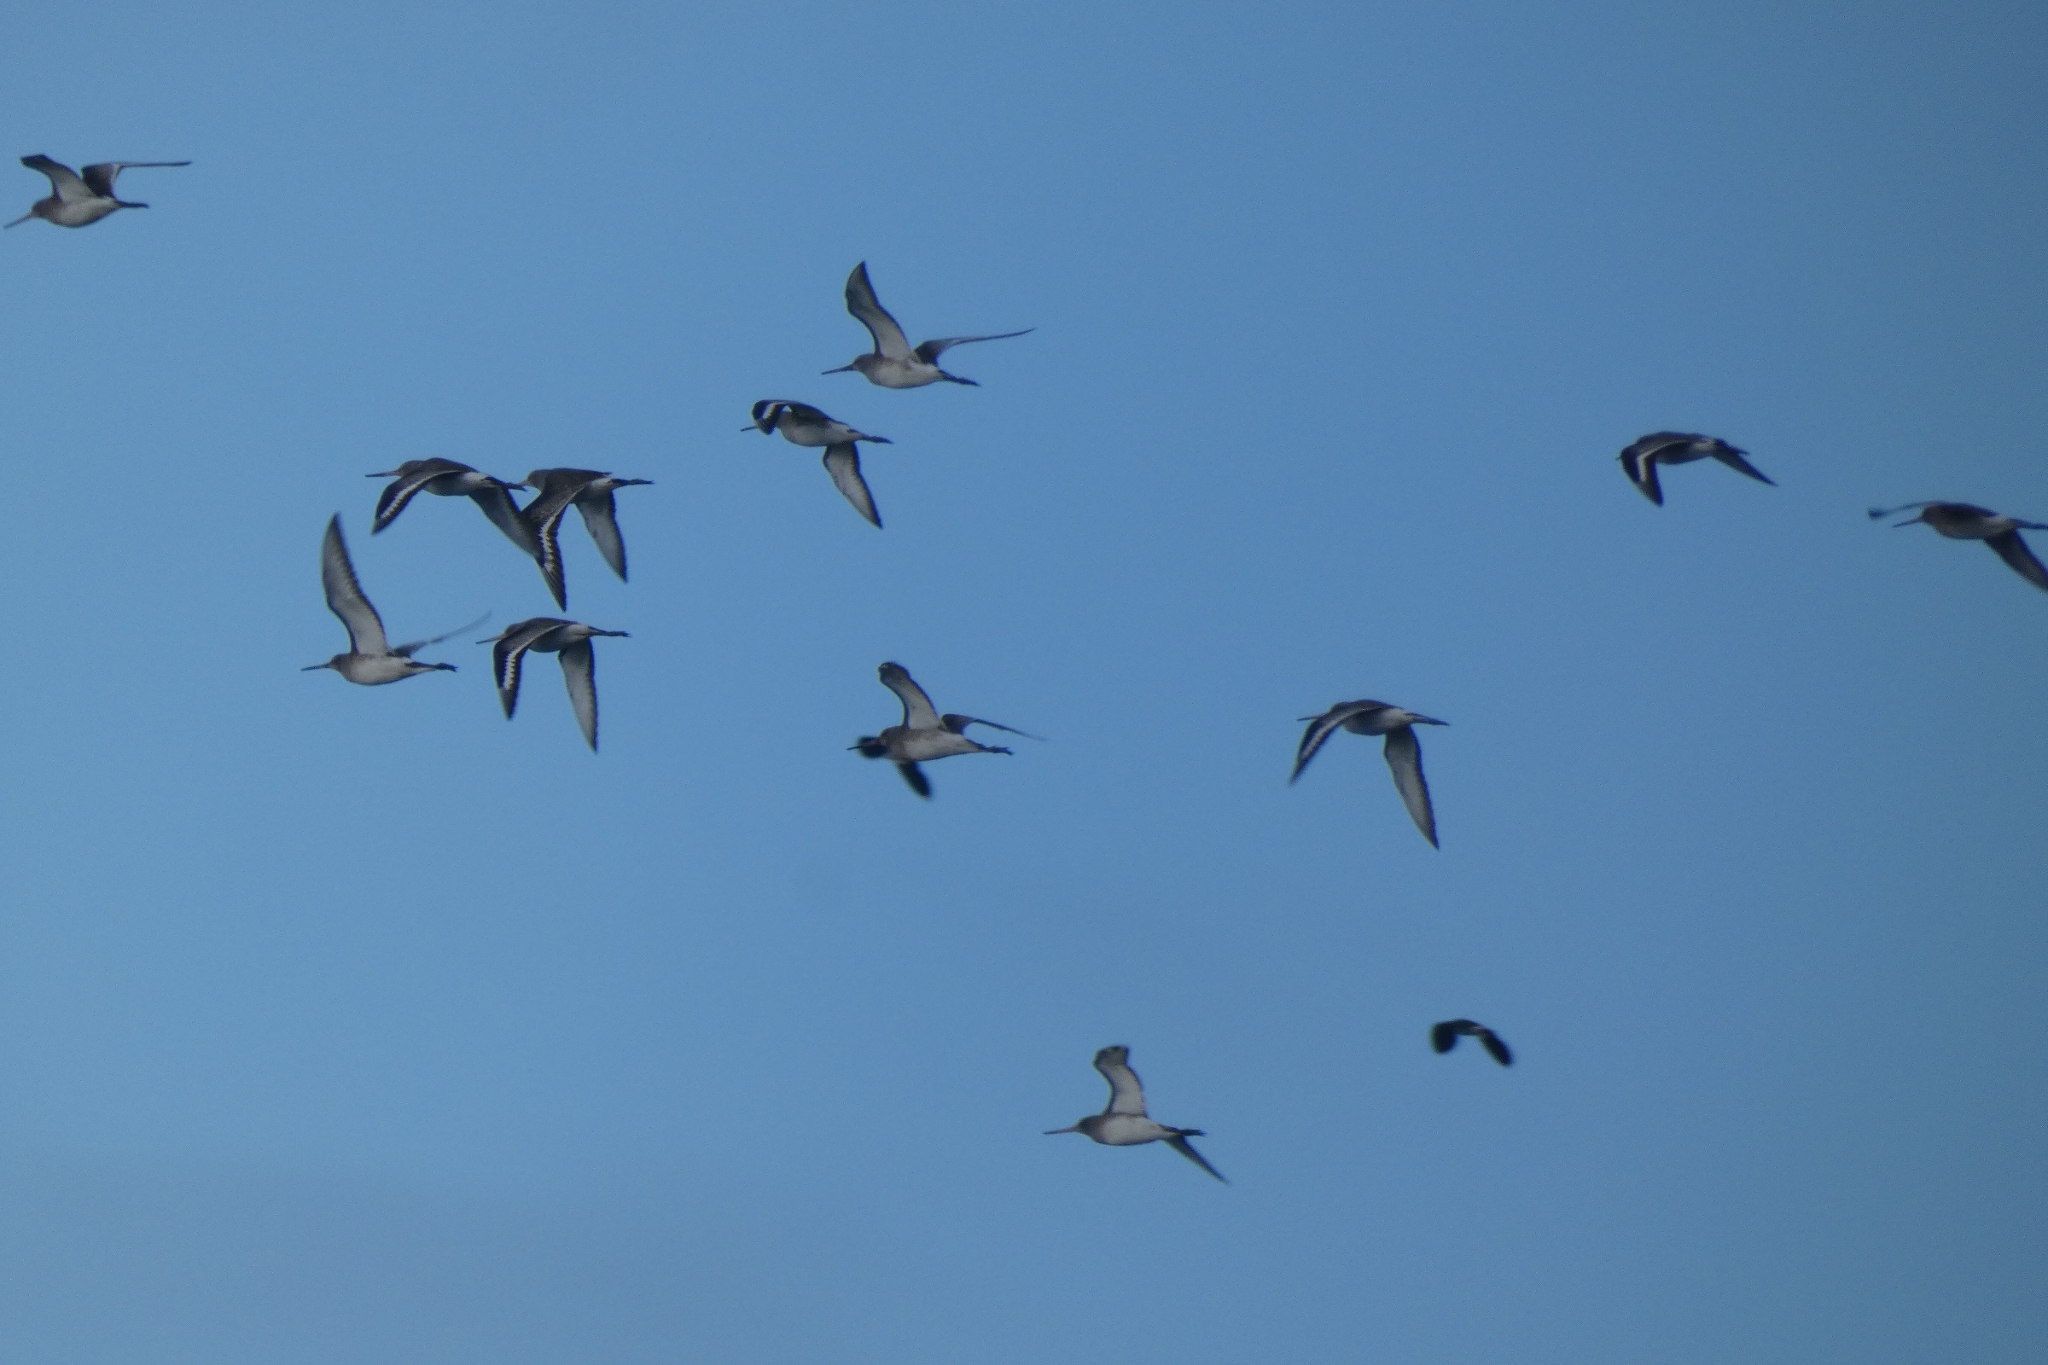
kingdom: Animalia
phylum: Chordata
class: Aves
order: Charadriiformes
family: Scolopacidae
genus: Limosa
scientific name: Limosa limosa
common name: Black-tailed godwit
